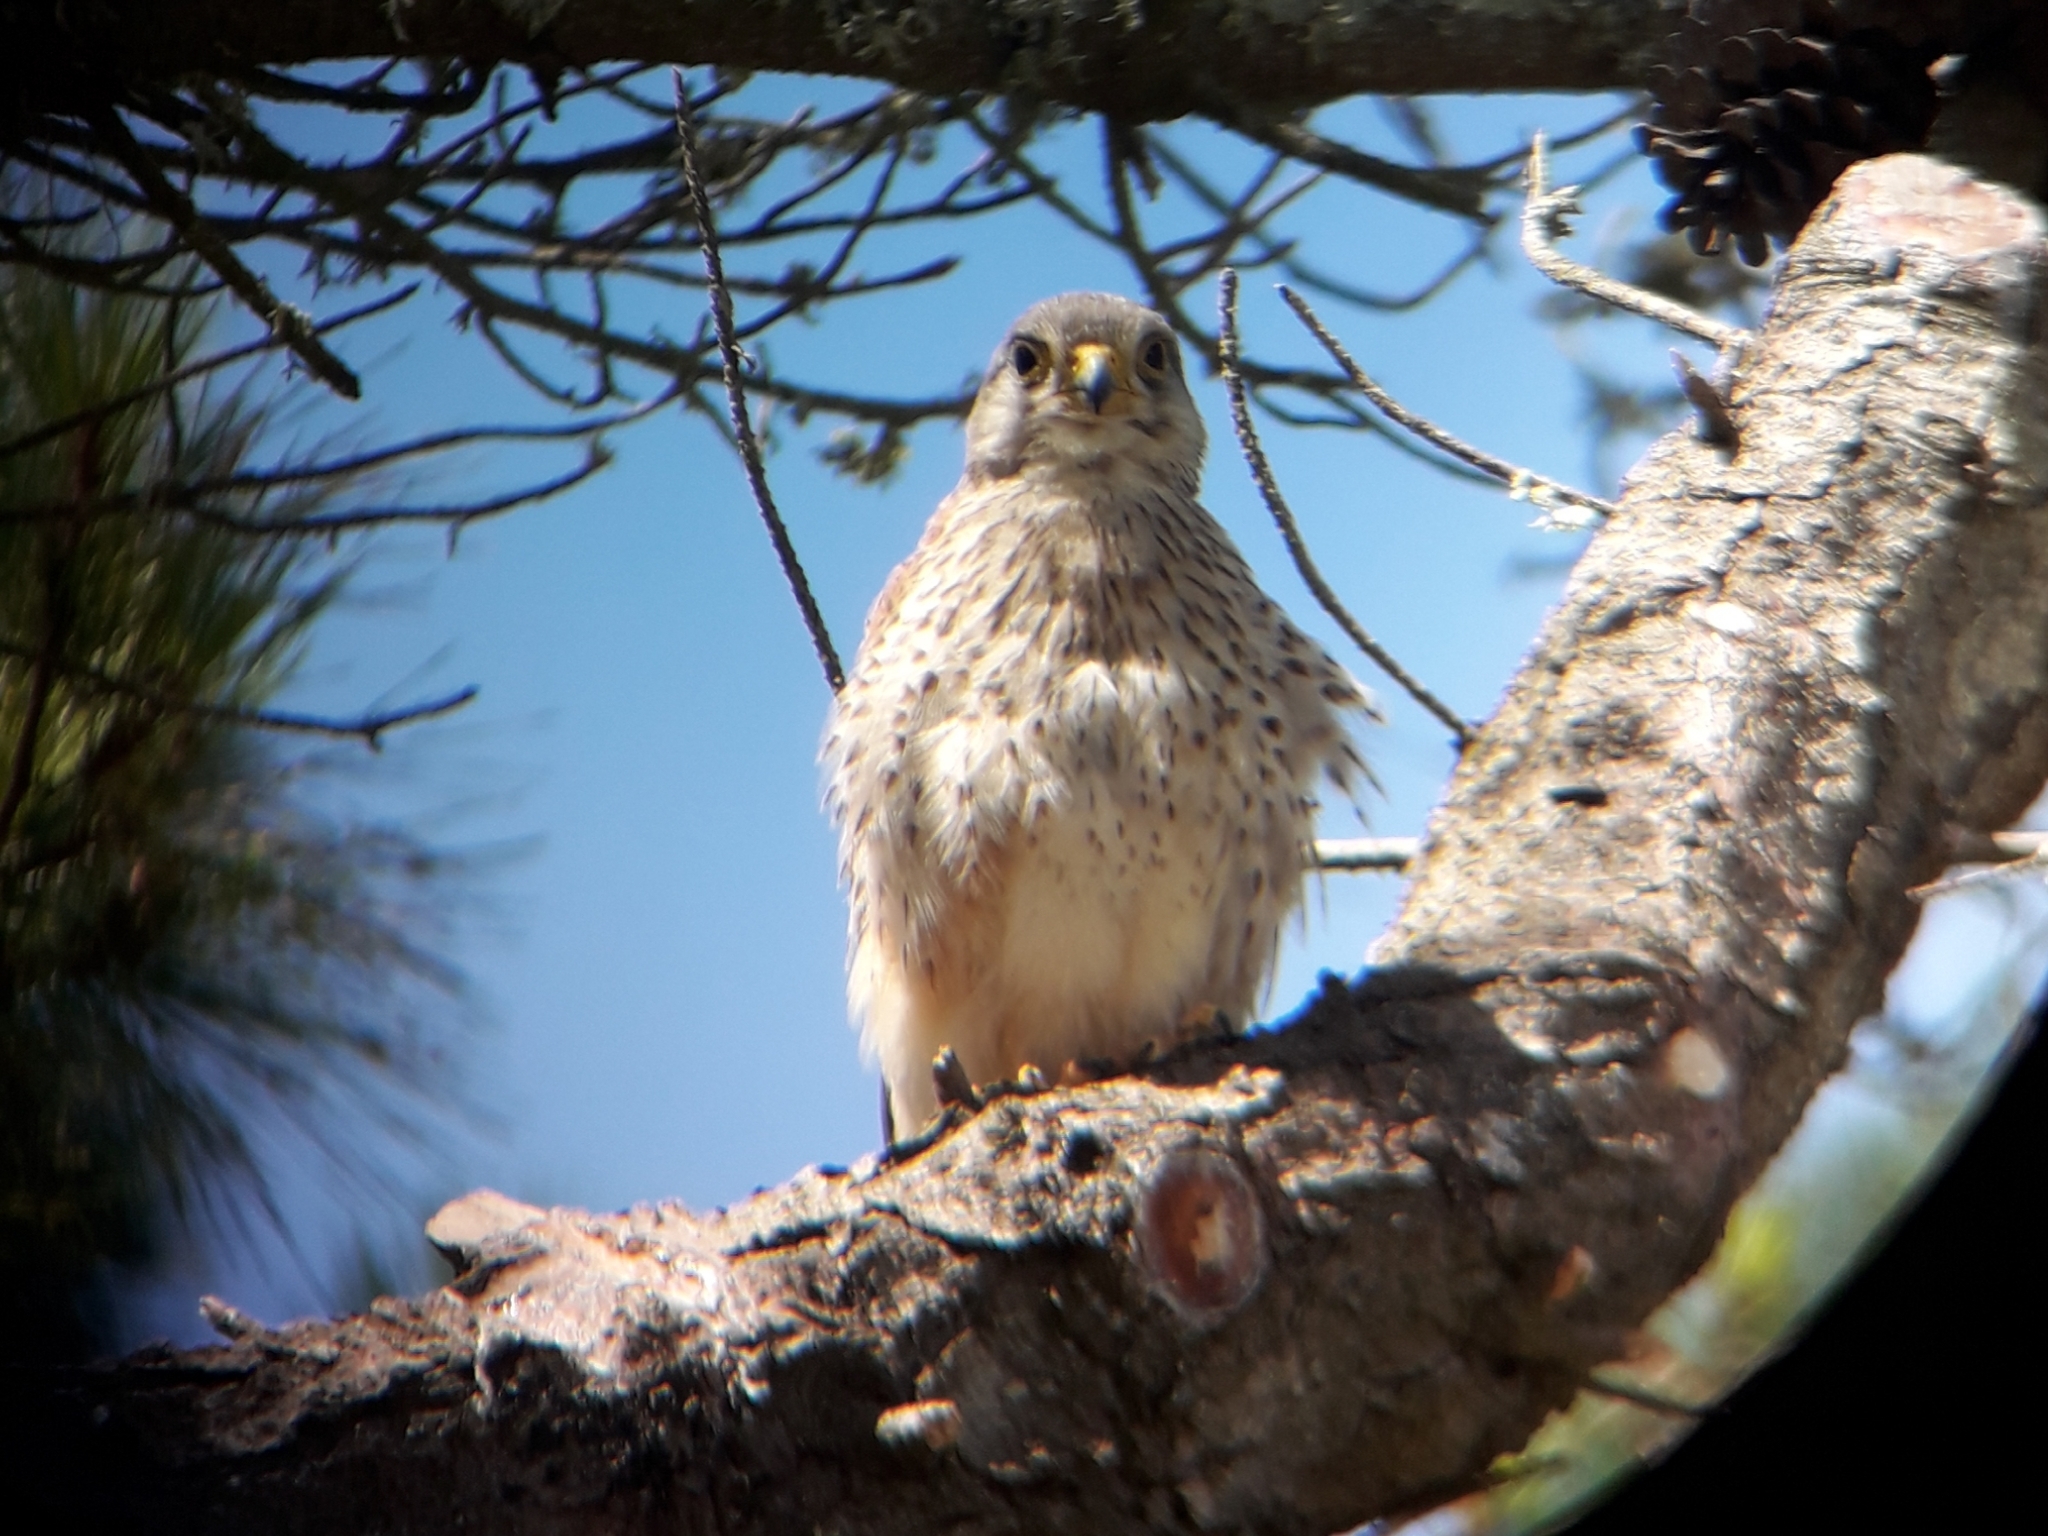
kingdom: Animalia
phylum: Chordata
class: Aves
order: Falconiformes
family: Falconidae
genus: Falco
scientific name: Falco tinnunculus
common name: Common kestrel
